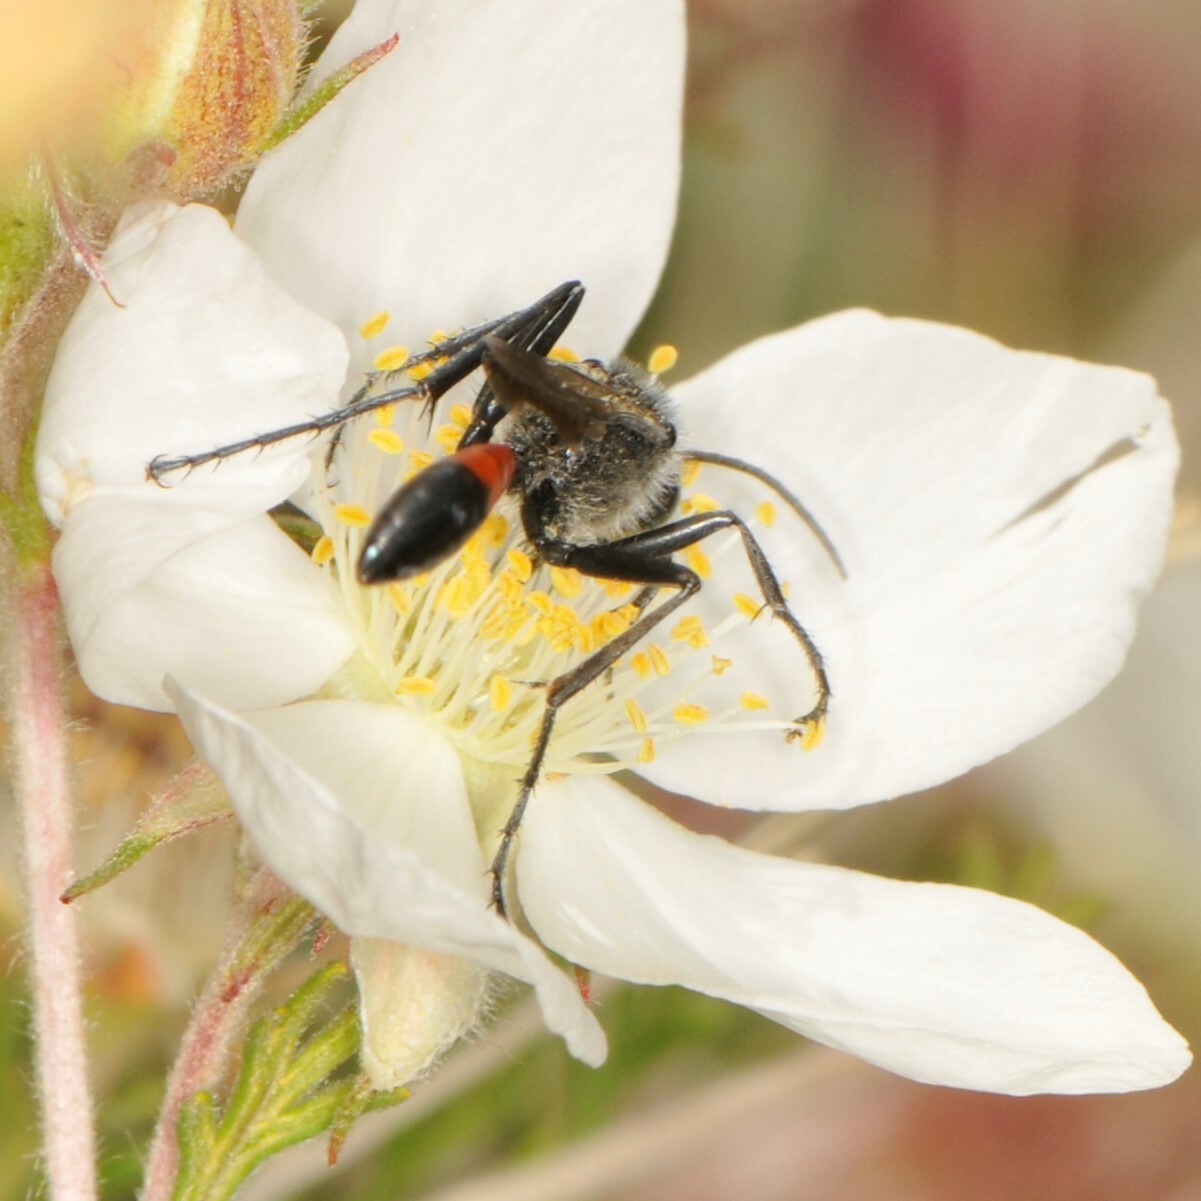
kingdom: Animalia
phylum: Arthropoda
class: Insecta
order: Hymenoptera
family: Sphecidae
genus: Ammophila
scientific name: Ammophila
